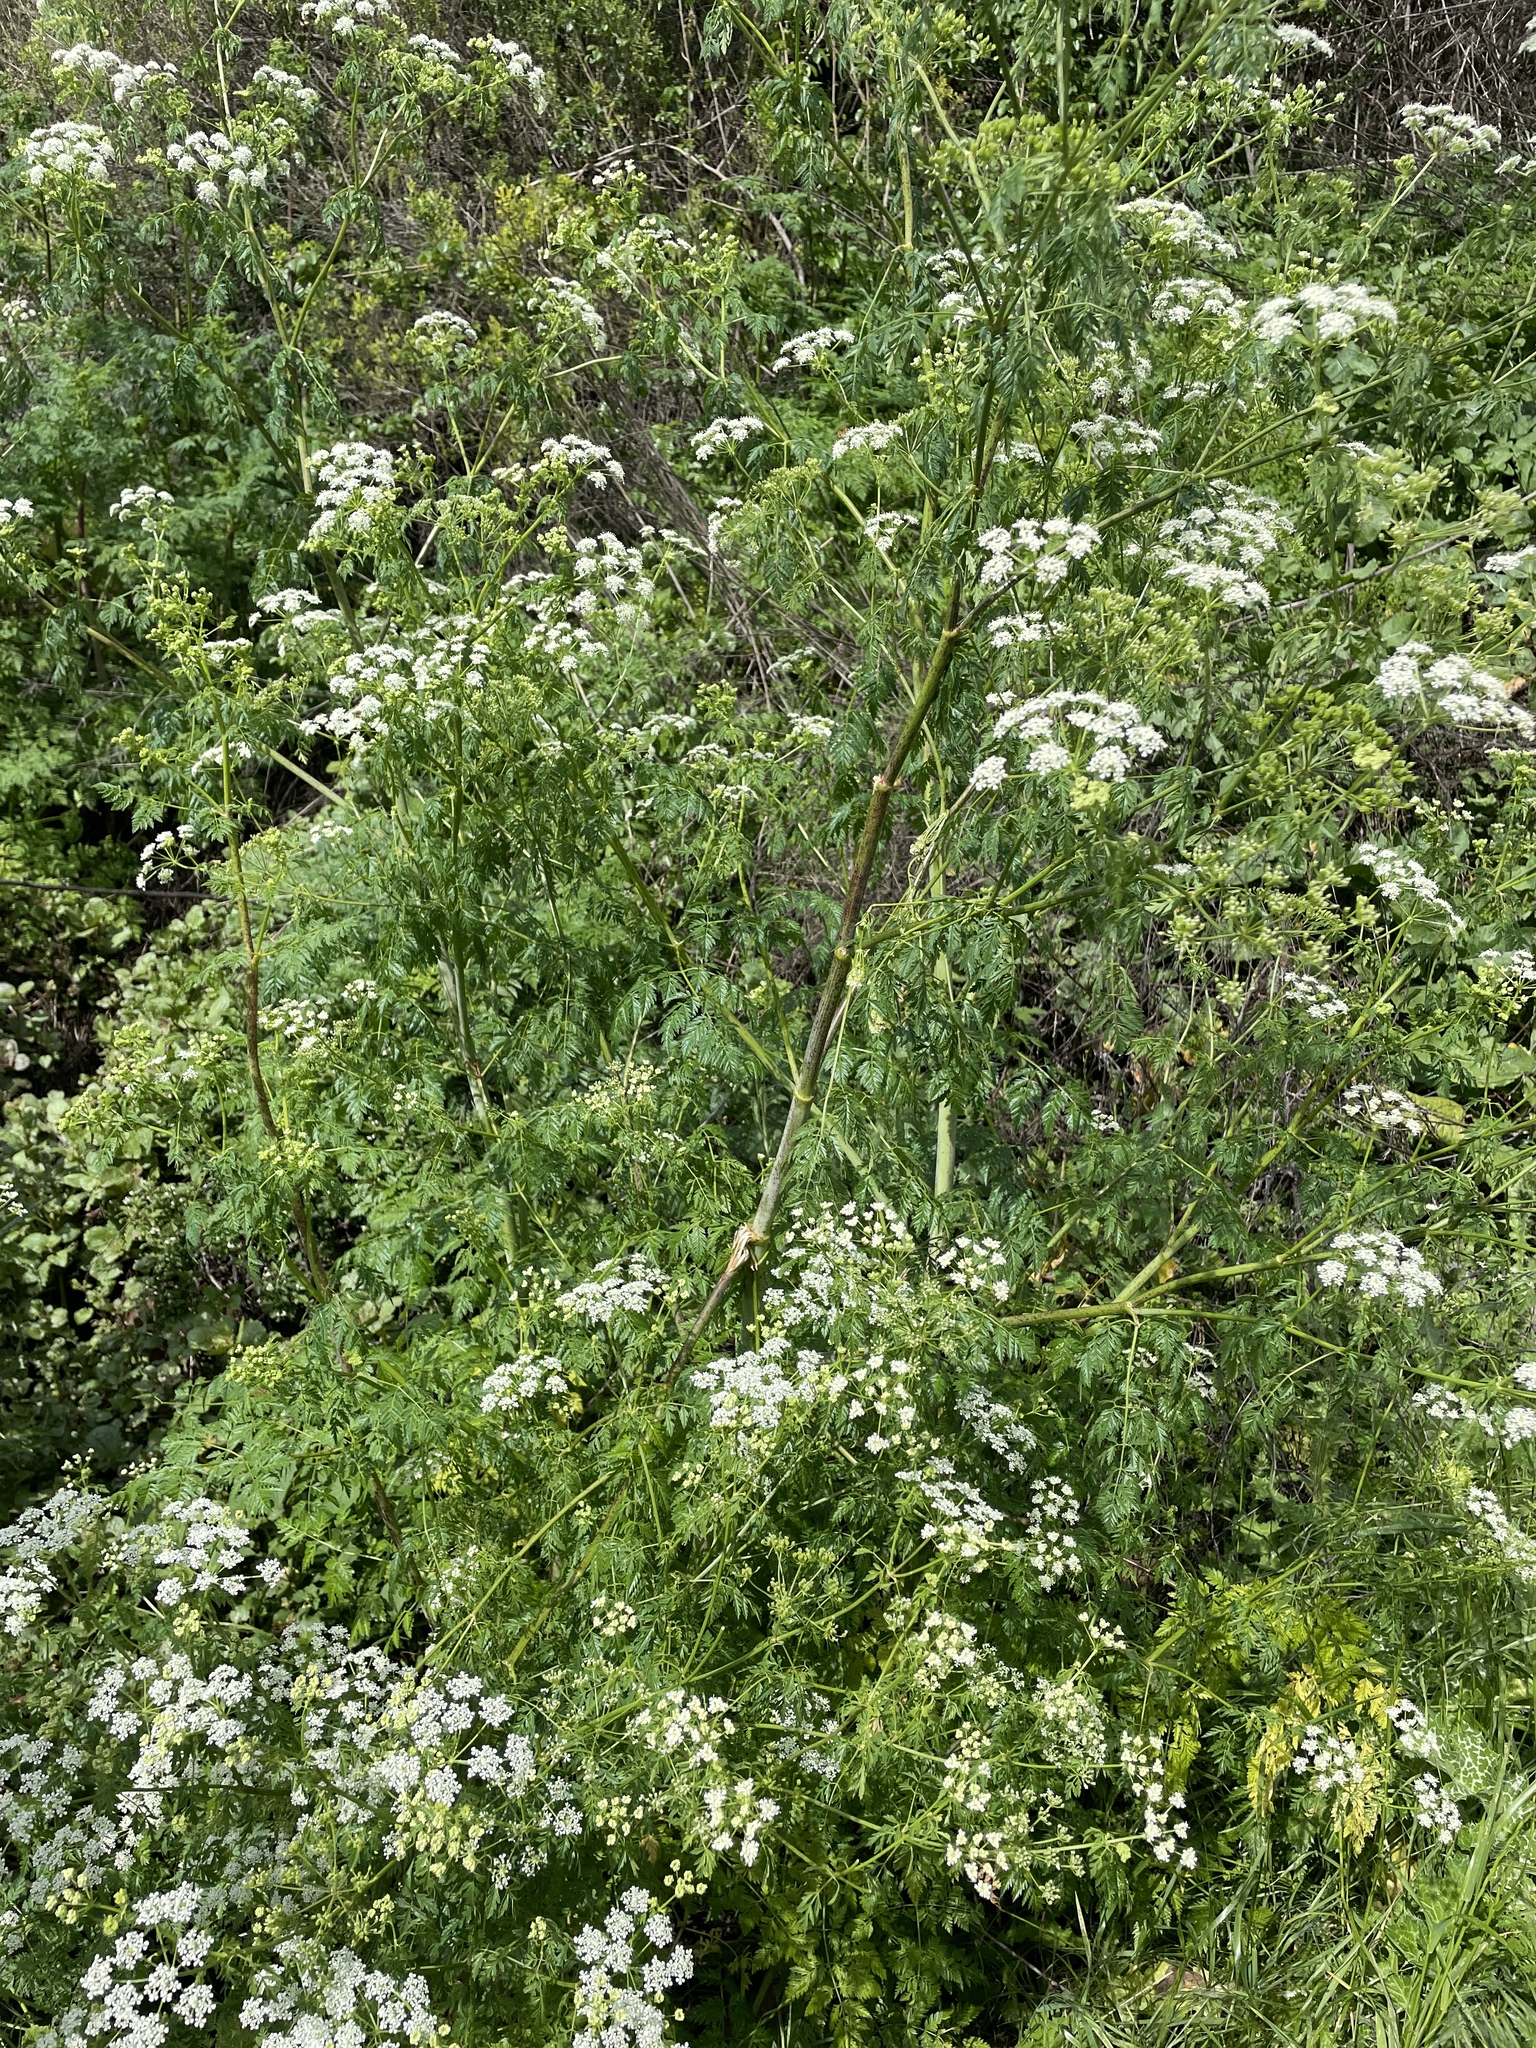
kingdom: Plantae
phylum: Tracheophyta
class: Magnoliopsida
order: Apiales
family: Apiaceae
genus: Conium
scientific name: Conium maculatum
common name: Hemlock
